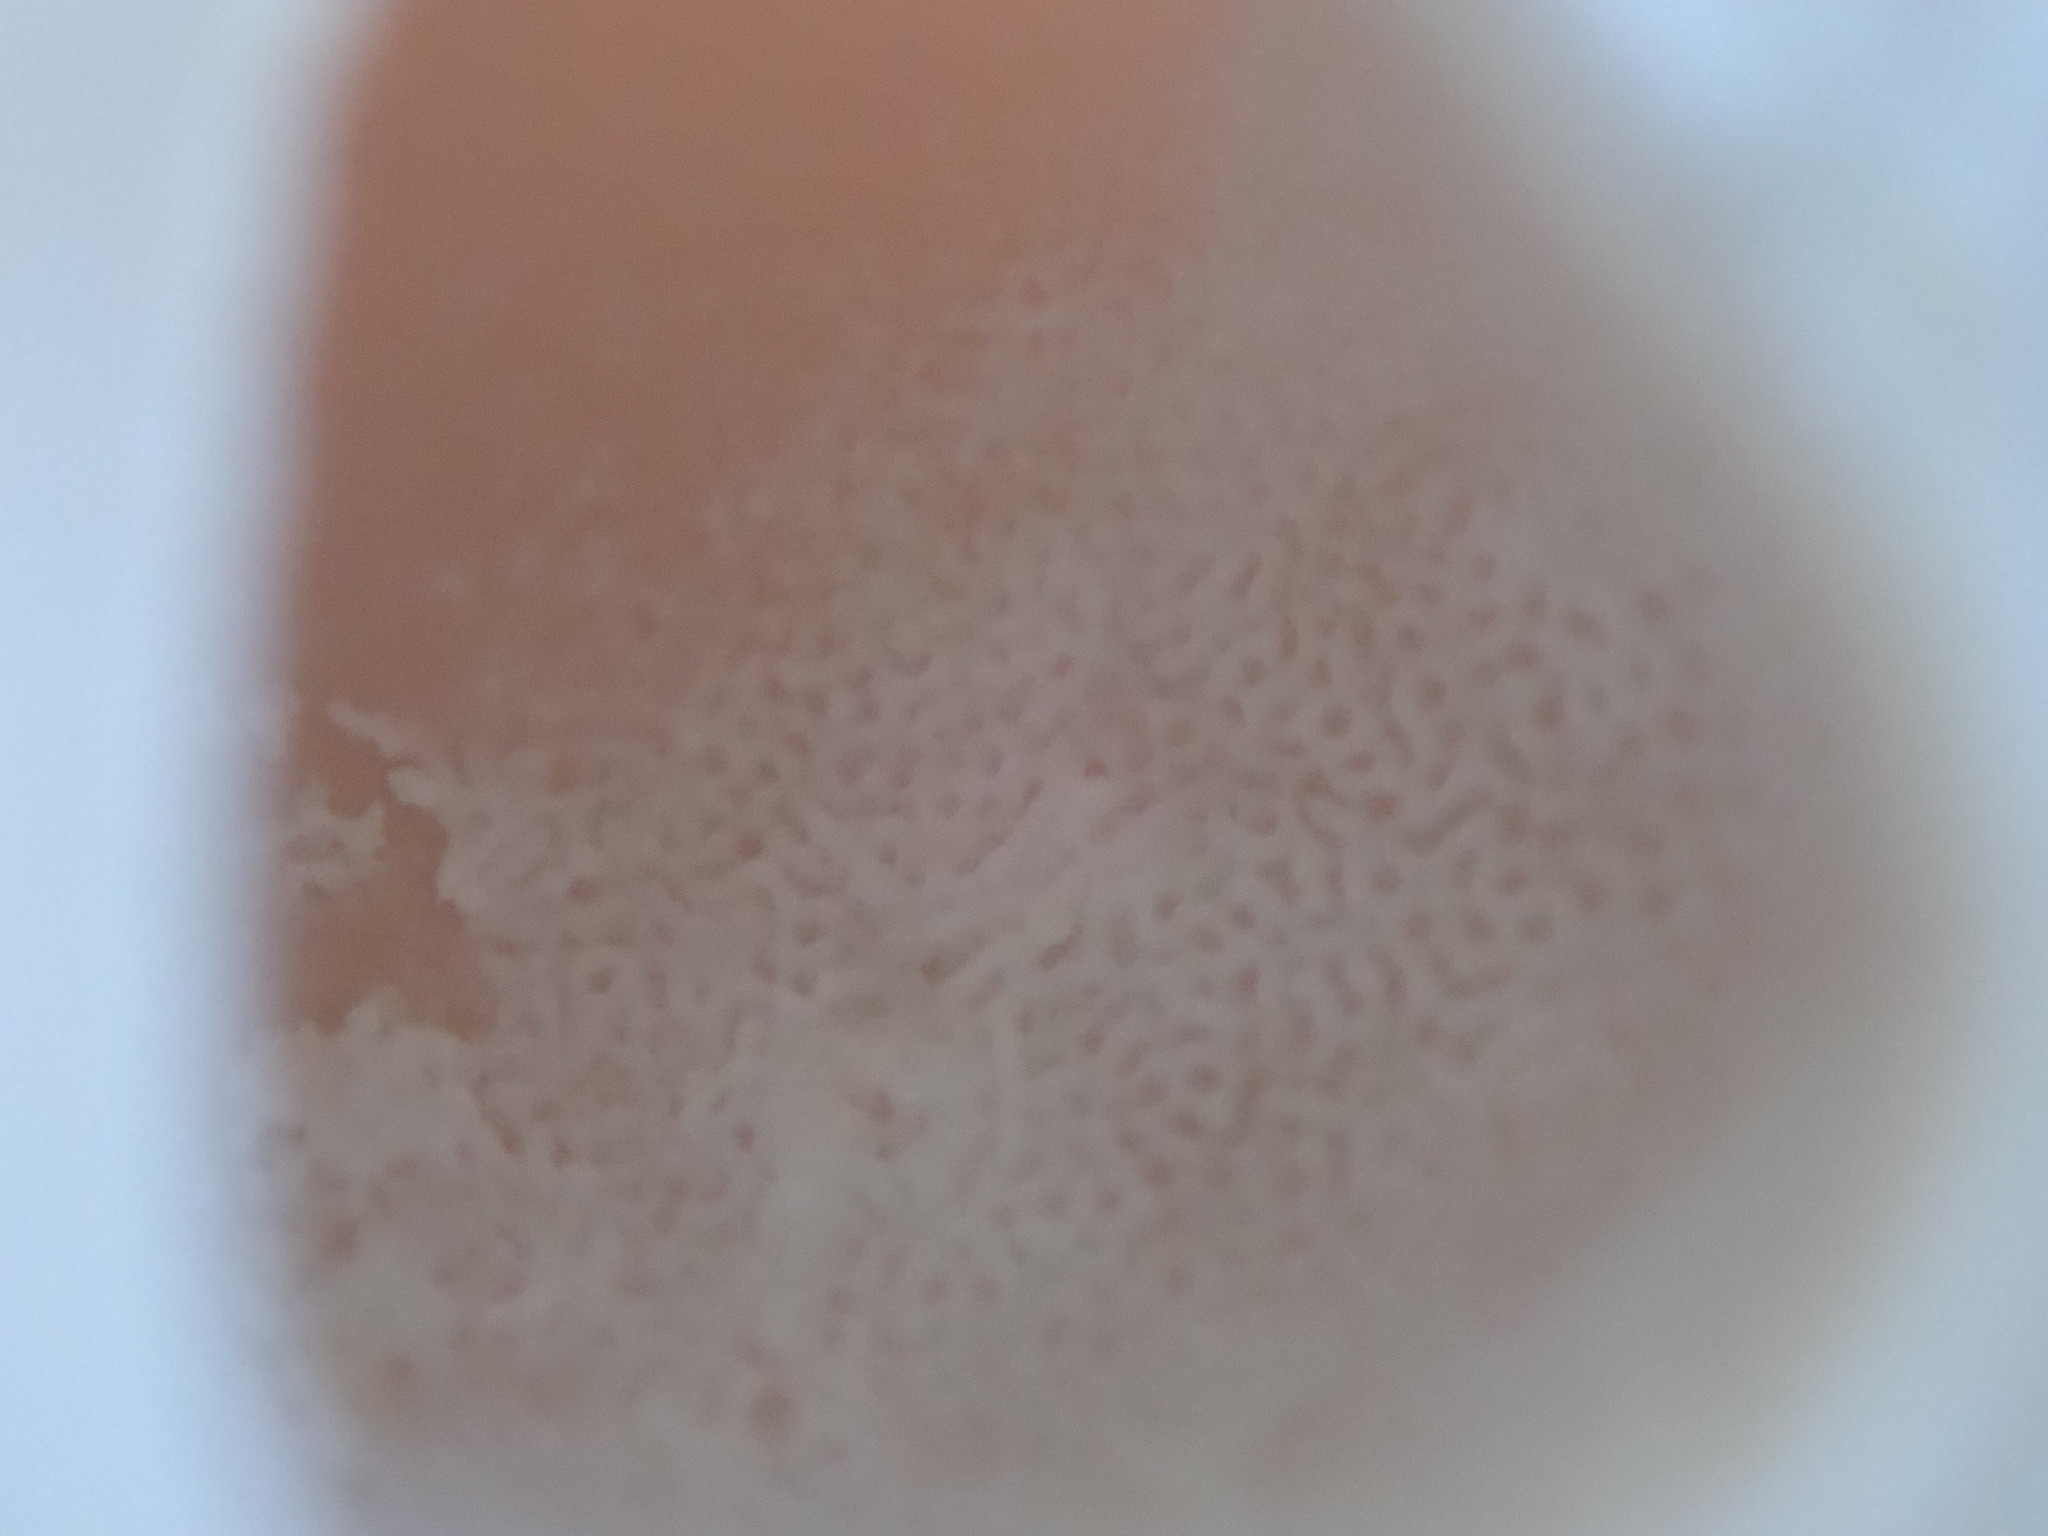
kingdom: Fungi
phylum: Basidiomycota
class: Agaricomycetes
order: Polyporales
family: Polyporaceae
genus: Cryptoporus
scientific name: Cryptoporus volvatus
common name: Veiled polypore
